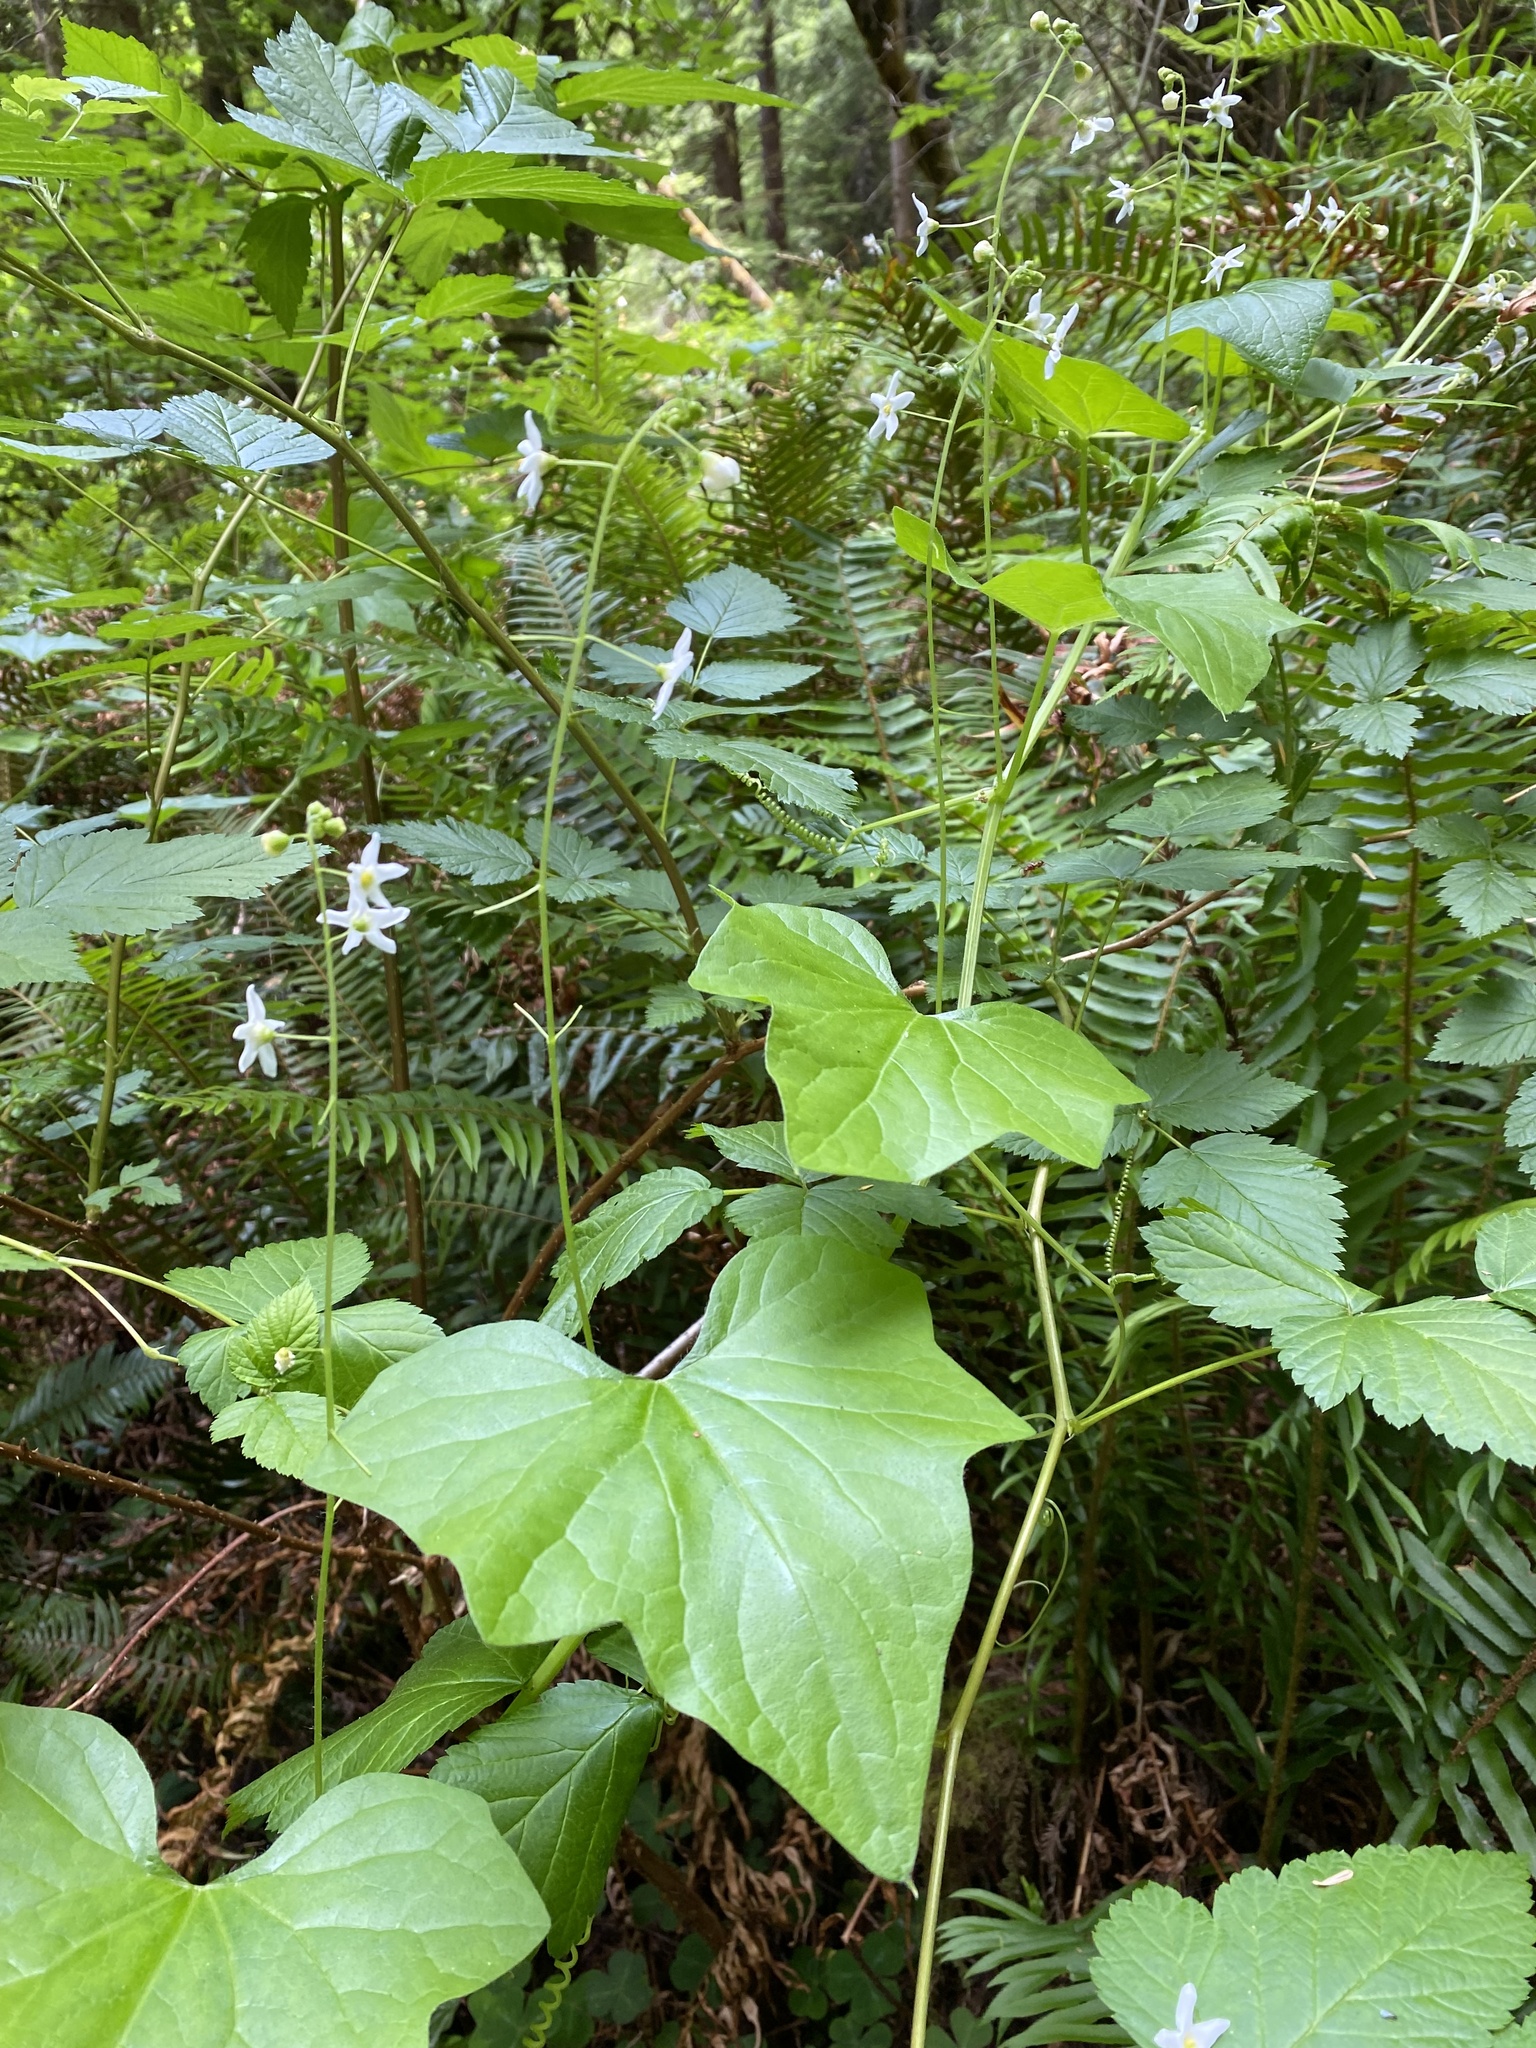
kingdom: Plantae
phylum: Tracheophyta
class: Magnoliopsida
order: Cucurbitales
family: Cucurbitaceae
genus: Marah
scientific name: Marah oregana
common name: Coastal manroot
